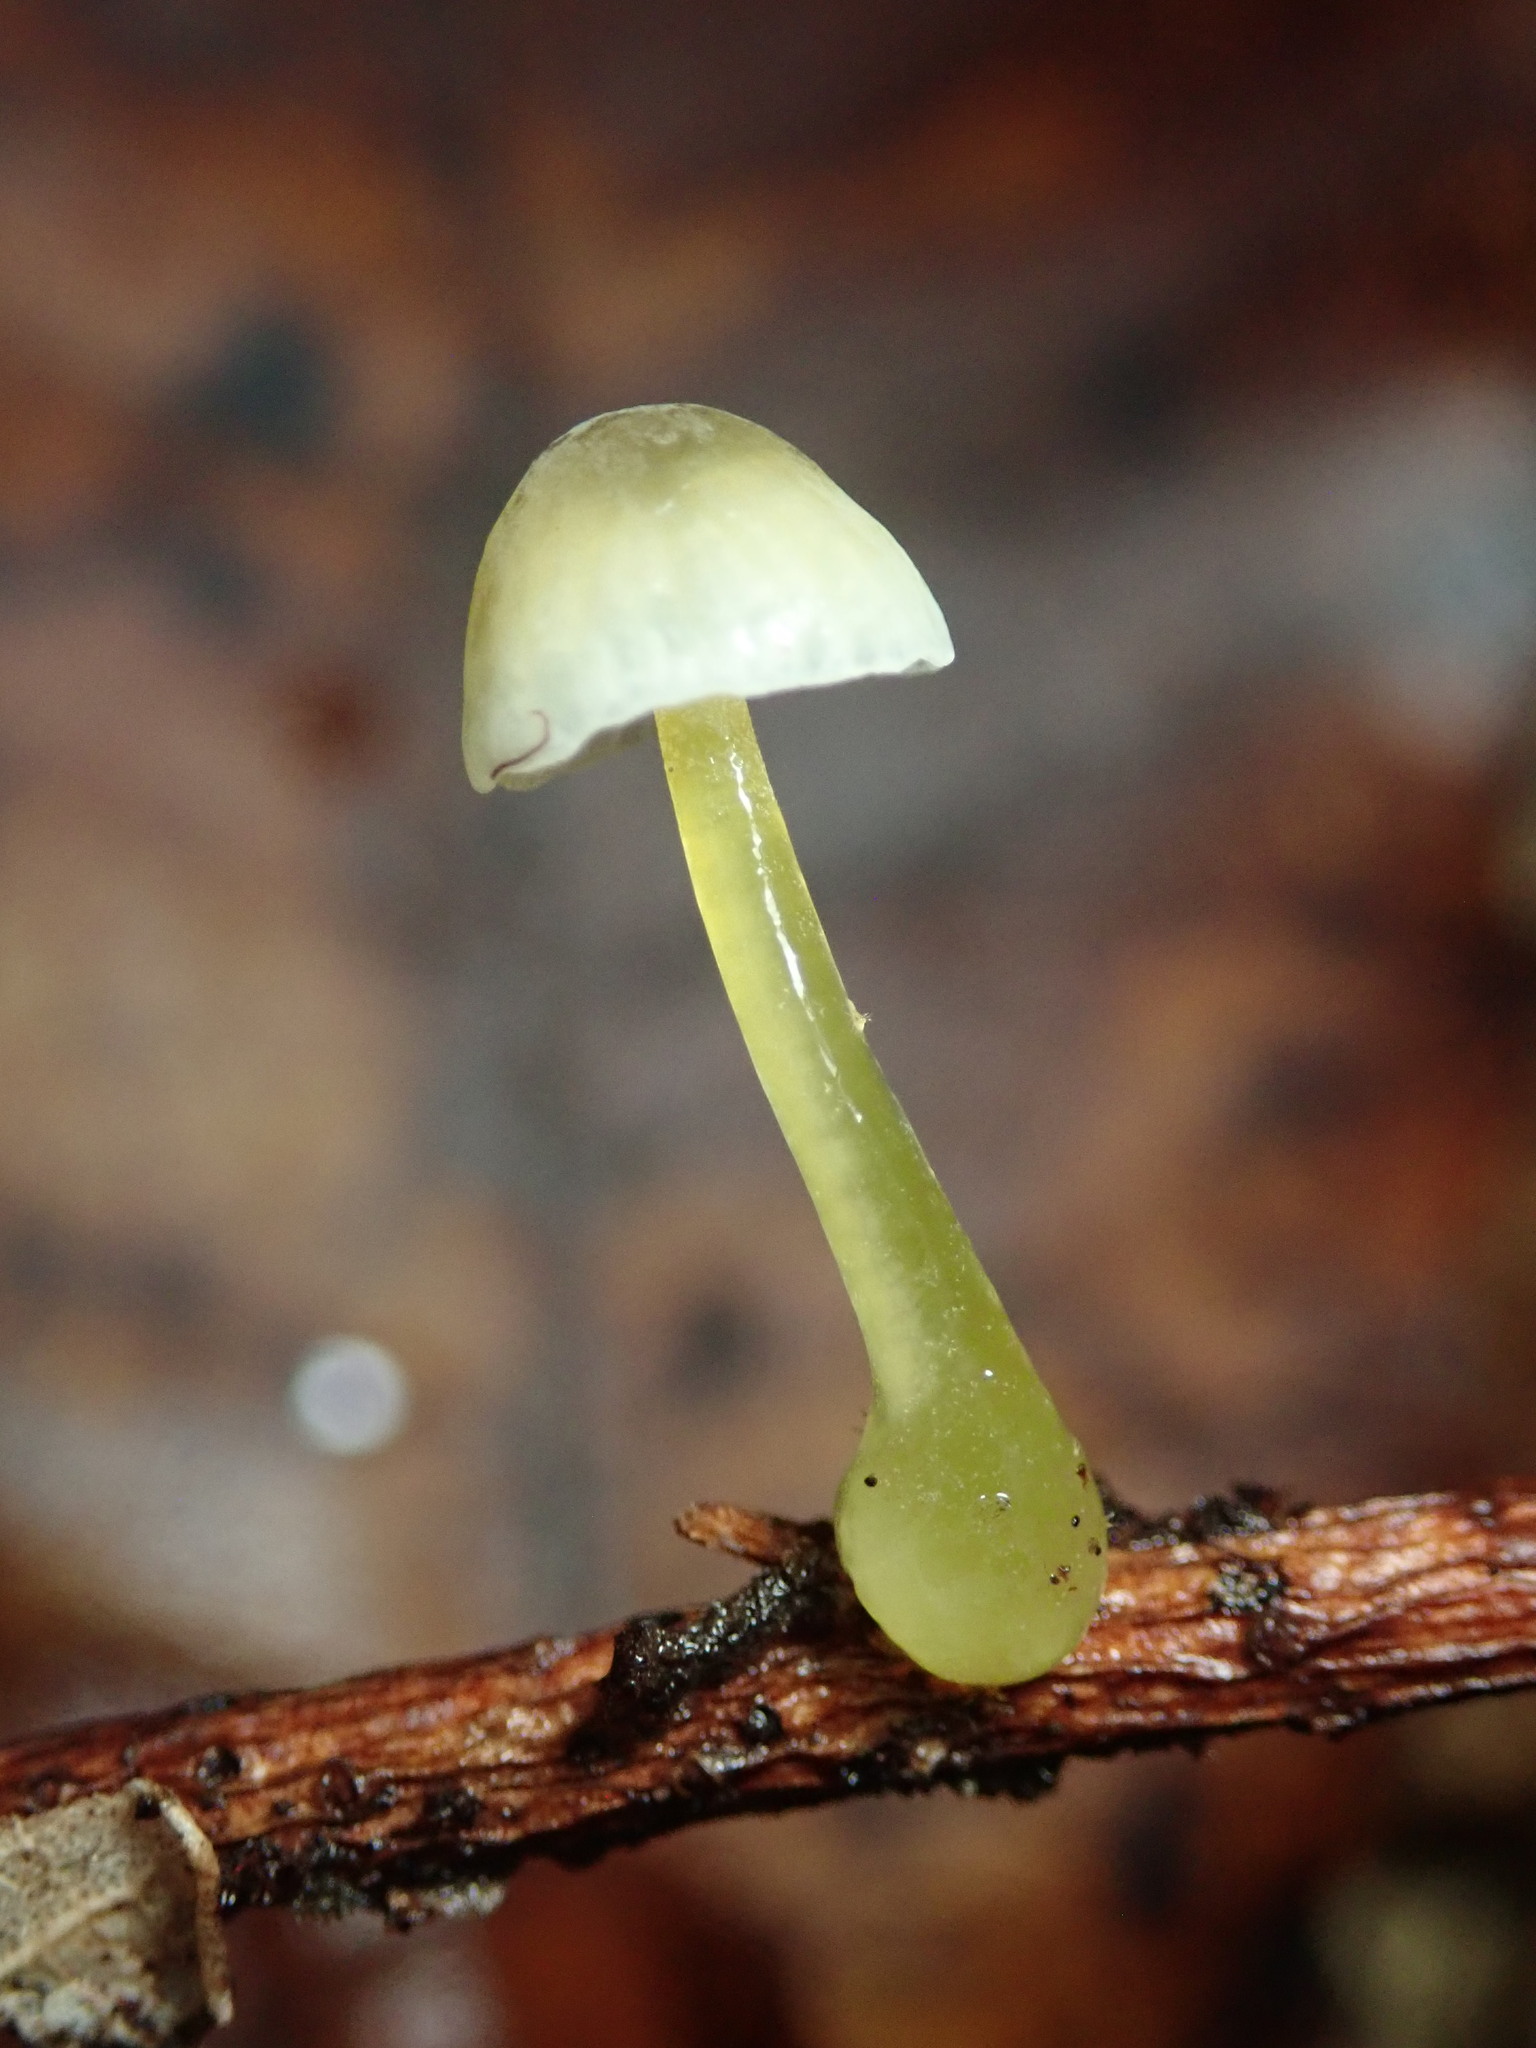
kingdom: Fungi
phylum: Basidiomycota
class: Agaricomycetes
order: Agaricales
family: Mycenaceae
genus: Mycena
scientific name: Mycena epipterygia
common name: Yellowleg bonnet
